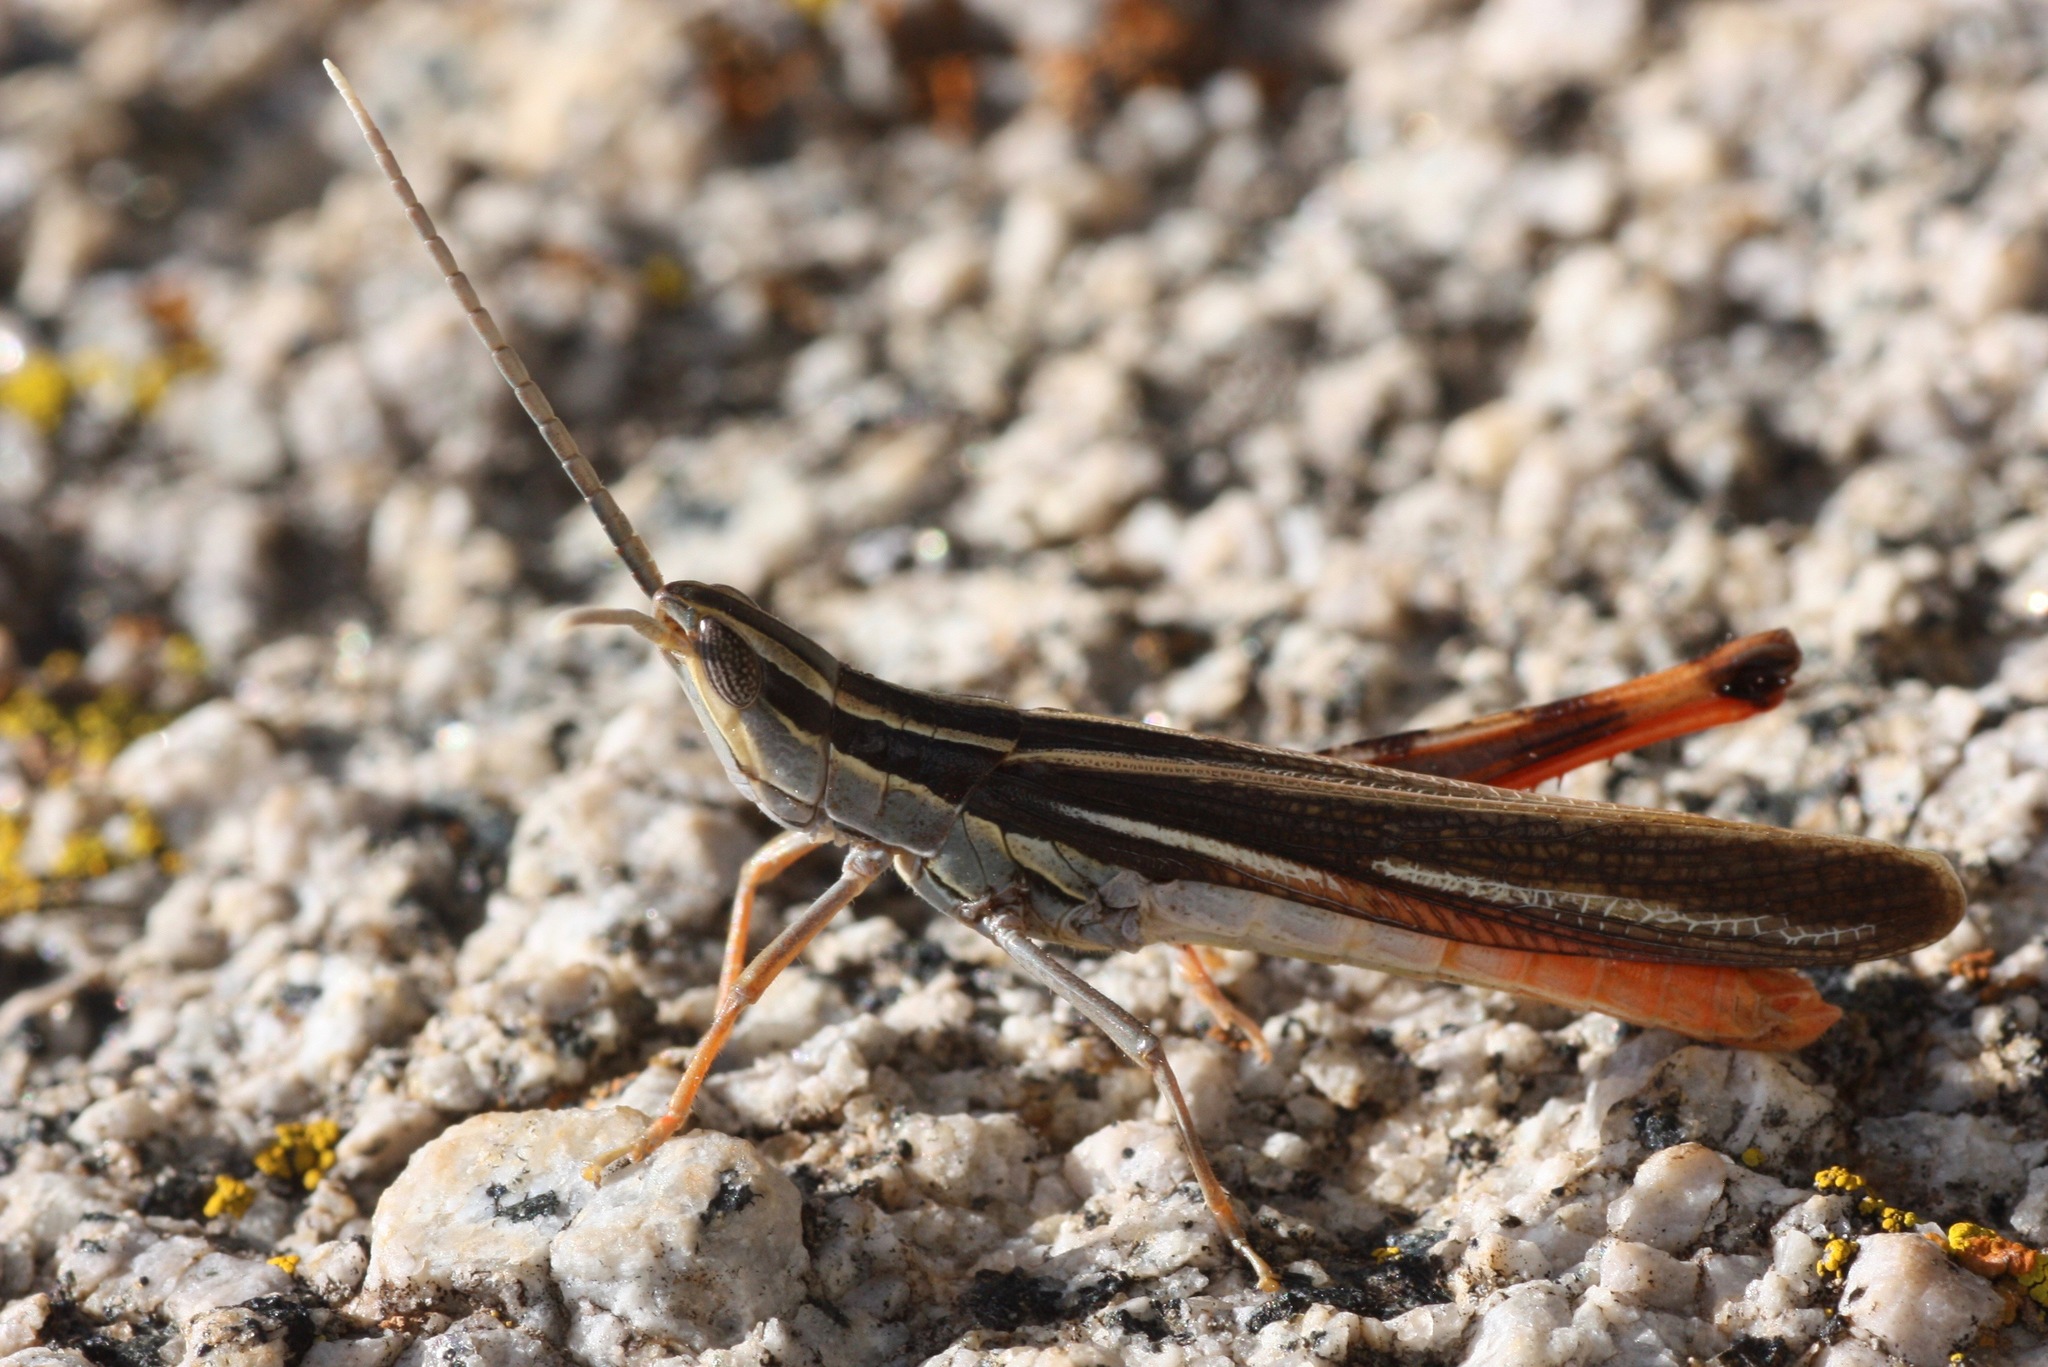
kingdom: Animalia
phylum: Arthropoda
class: Insecta
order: Orthoptera
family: Acrididae
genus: Mermiria
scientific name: Mermiria texana
